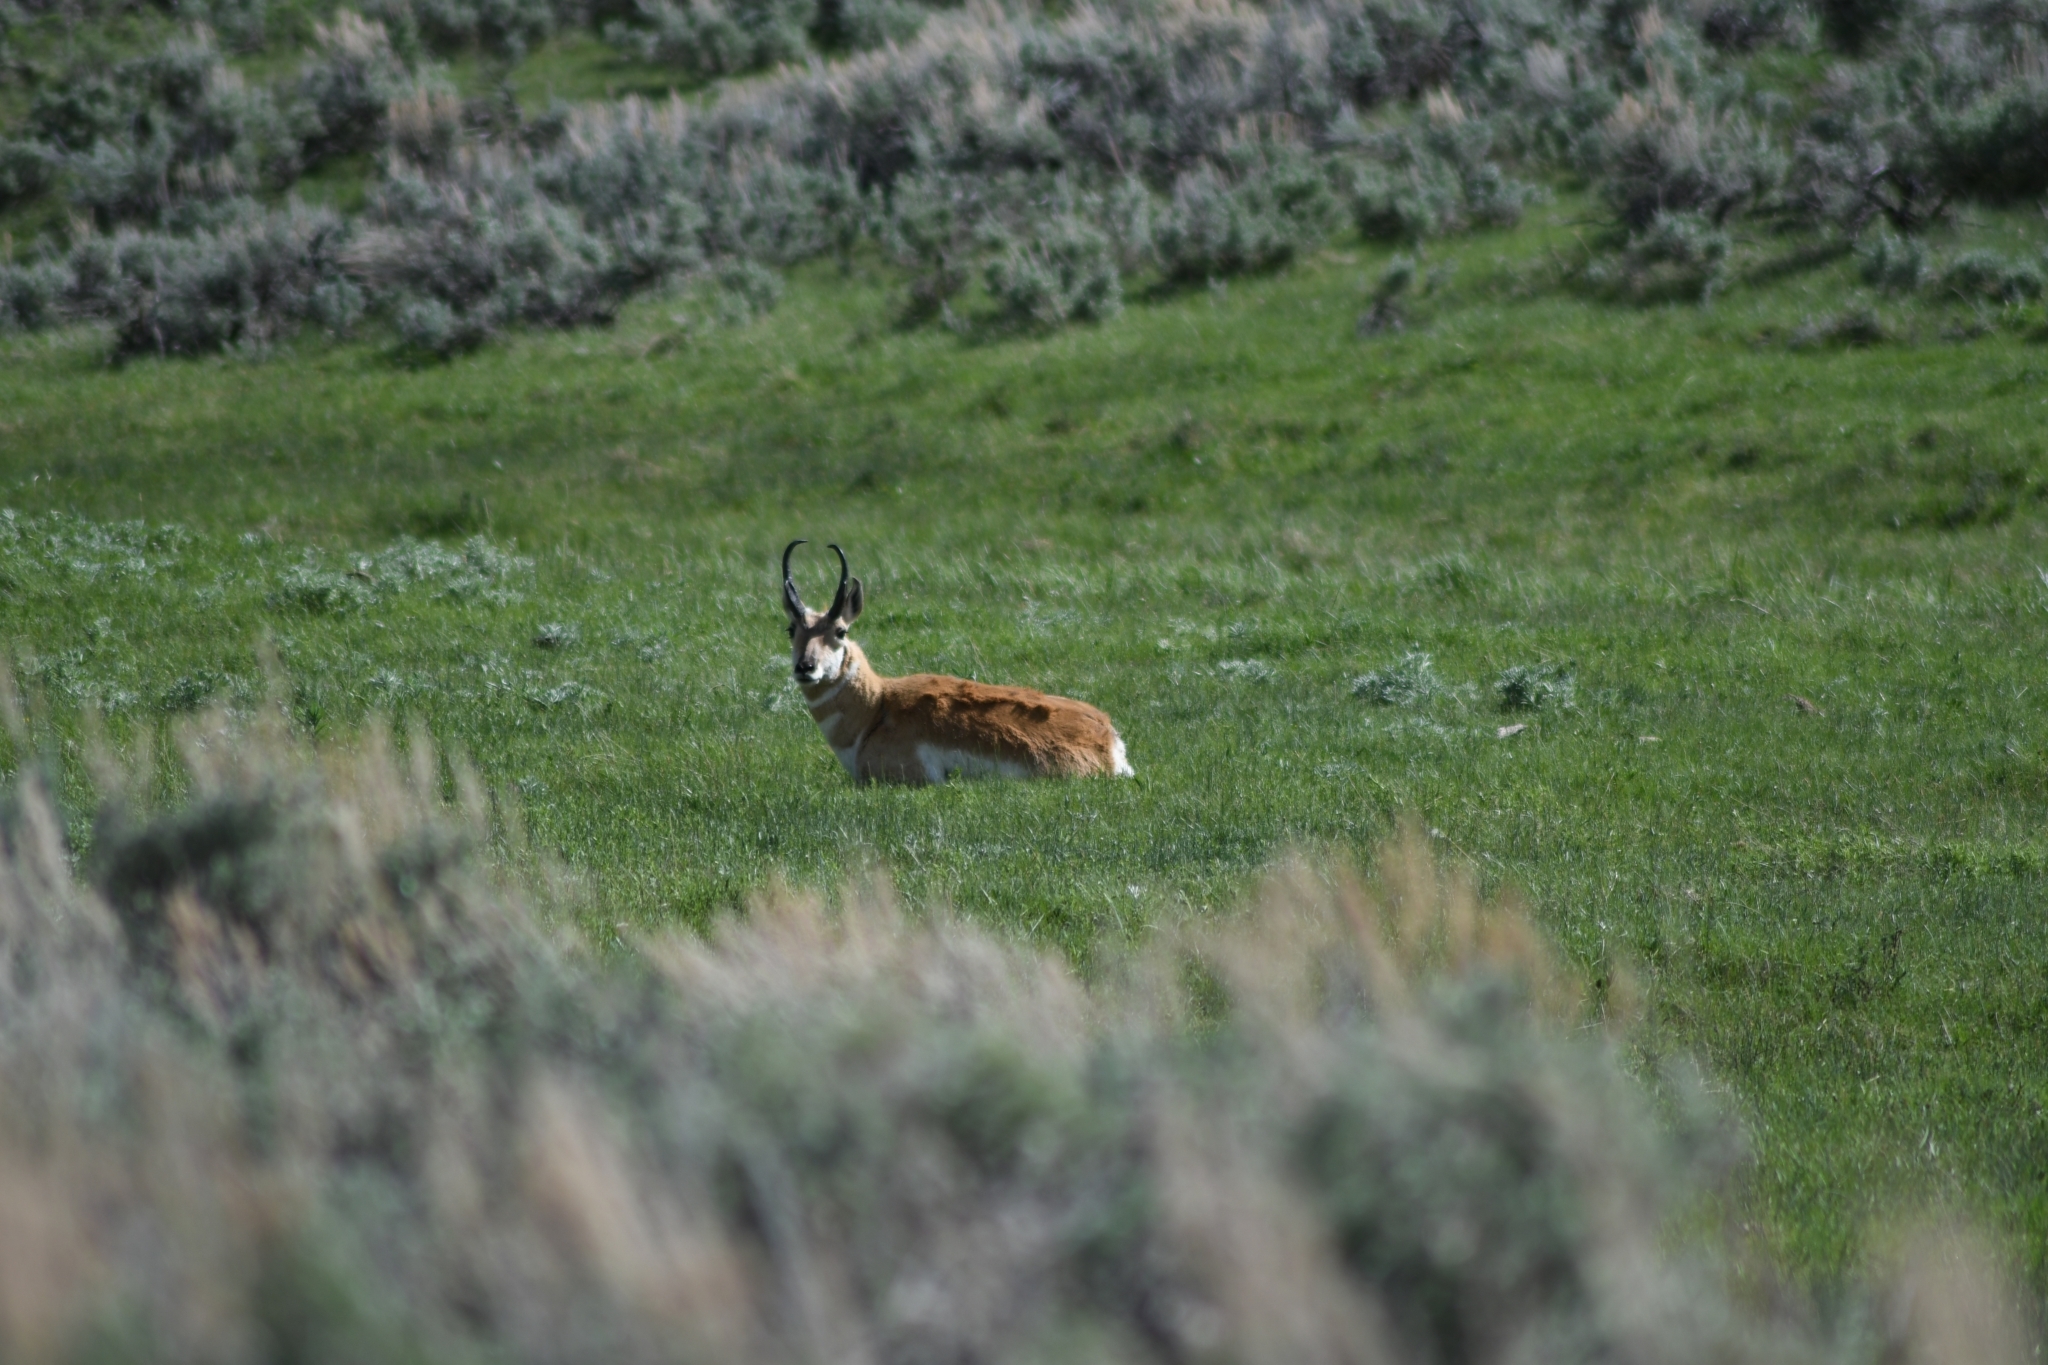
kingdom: Animalia
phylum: Chordata
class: Mammalia
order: Artiodactyla
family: Antilocapridae
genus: Antilocapra
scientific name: Antilocapra americana
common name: Pronghorn
